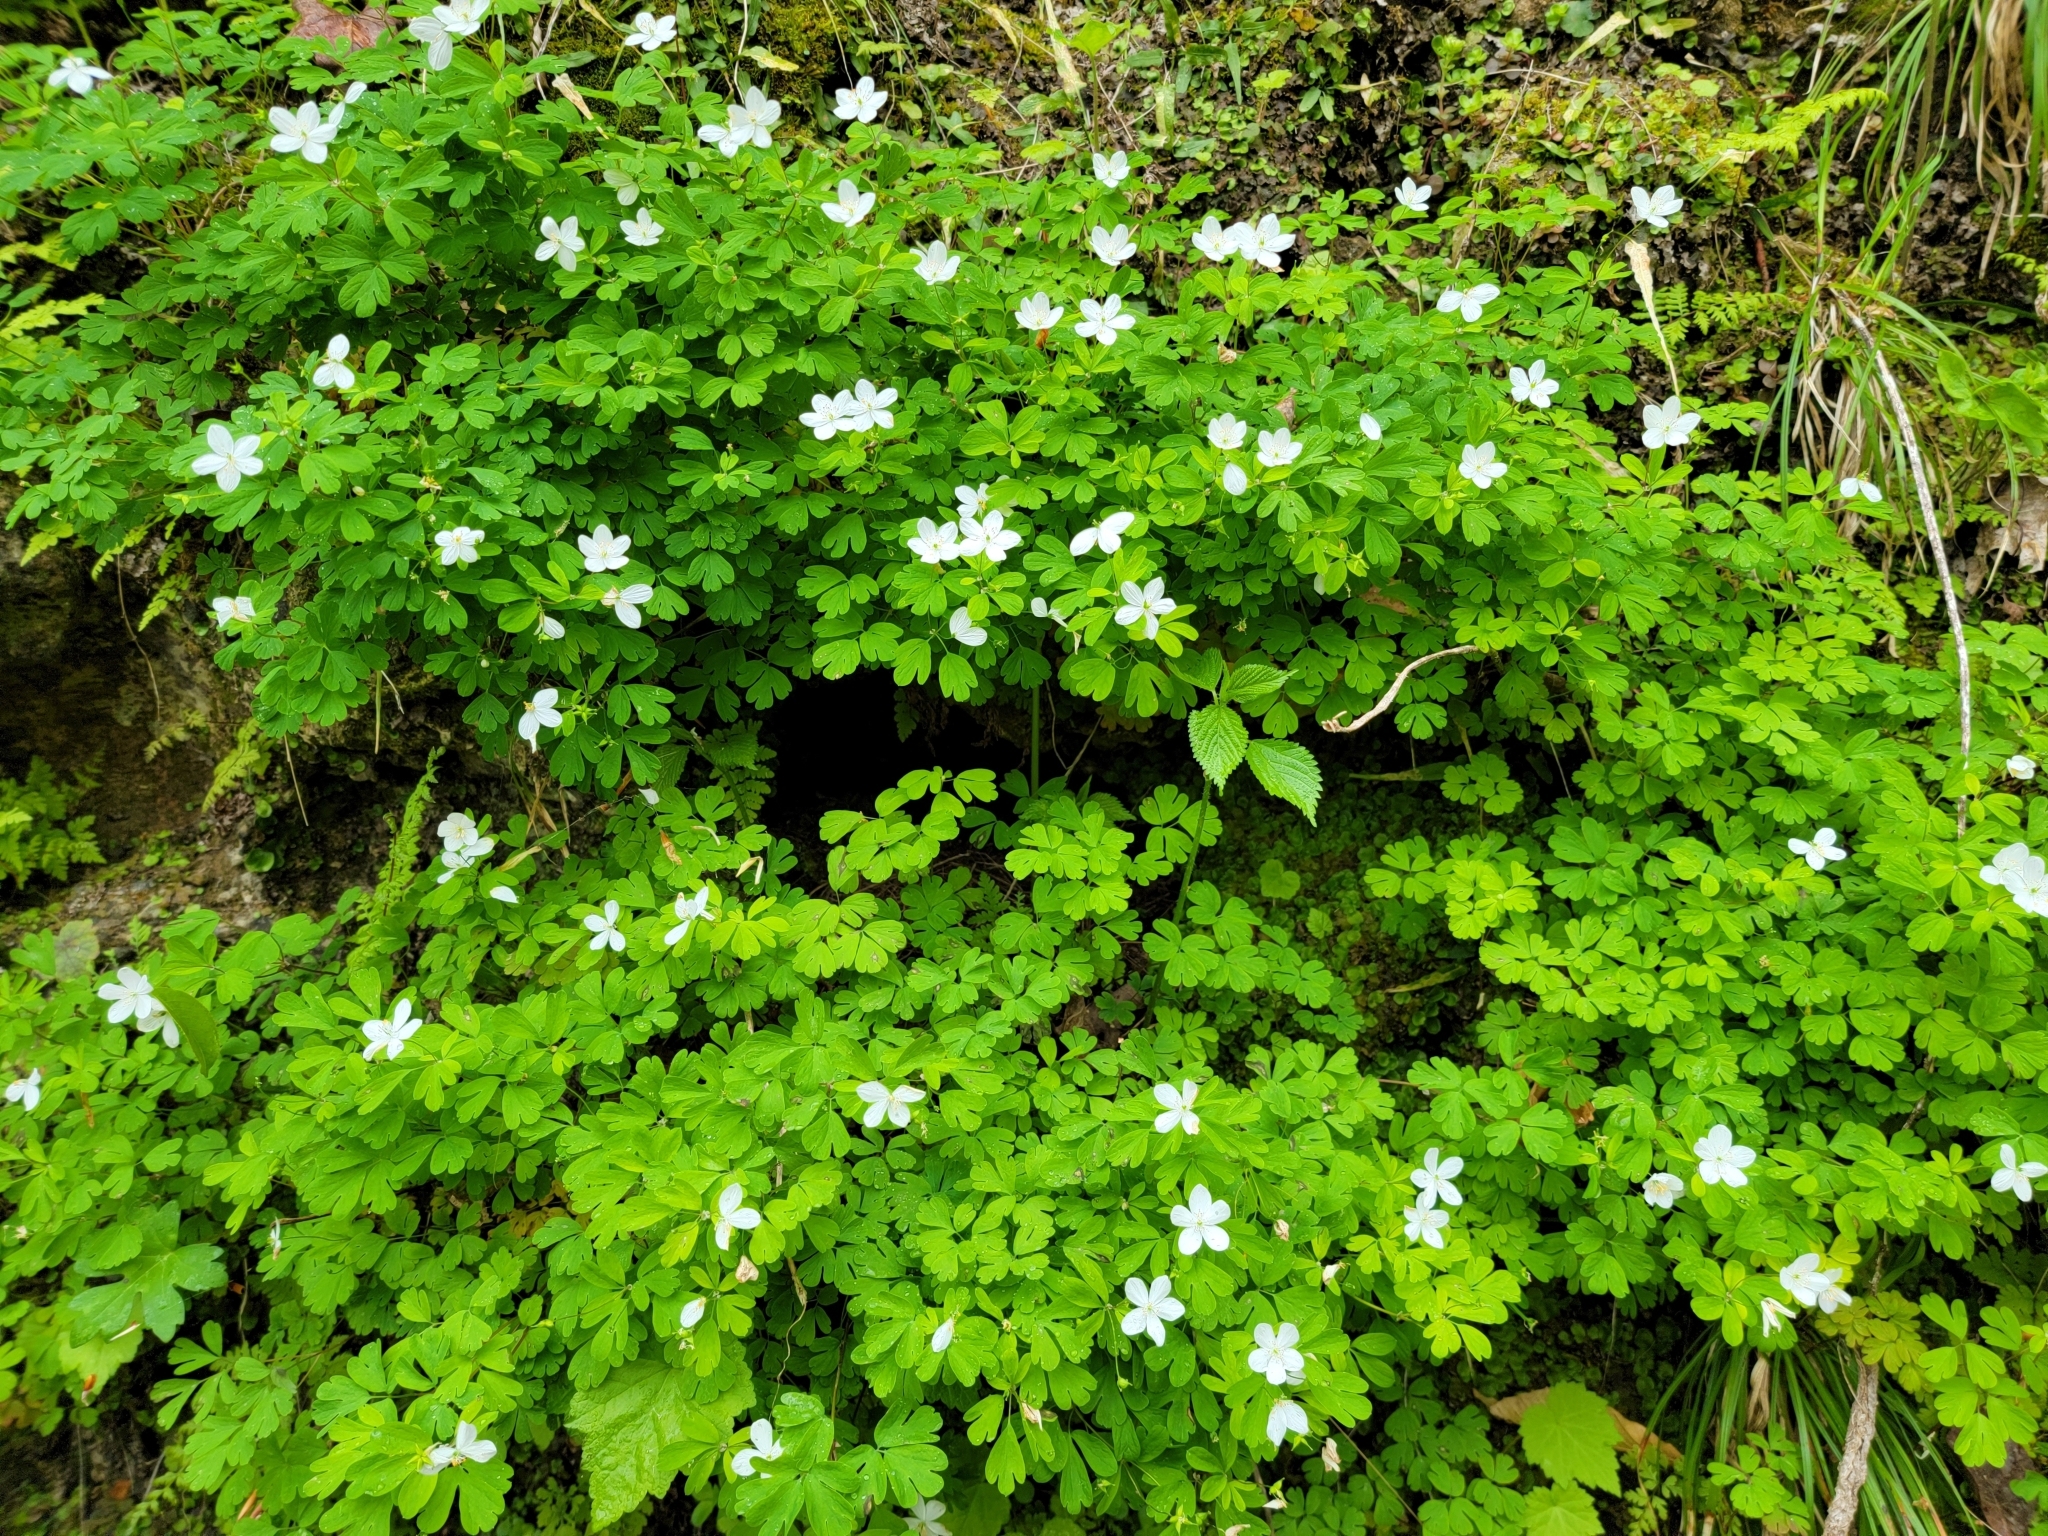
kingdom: Plantae
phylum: Tracheophyta
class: Magnoliopsida
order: Ranunculales
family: Ranunculaceae
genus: Enemion
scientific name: Enemion biternatum
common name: Eastern false rue-anemone
